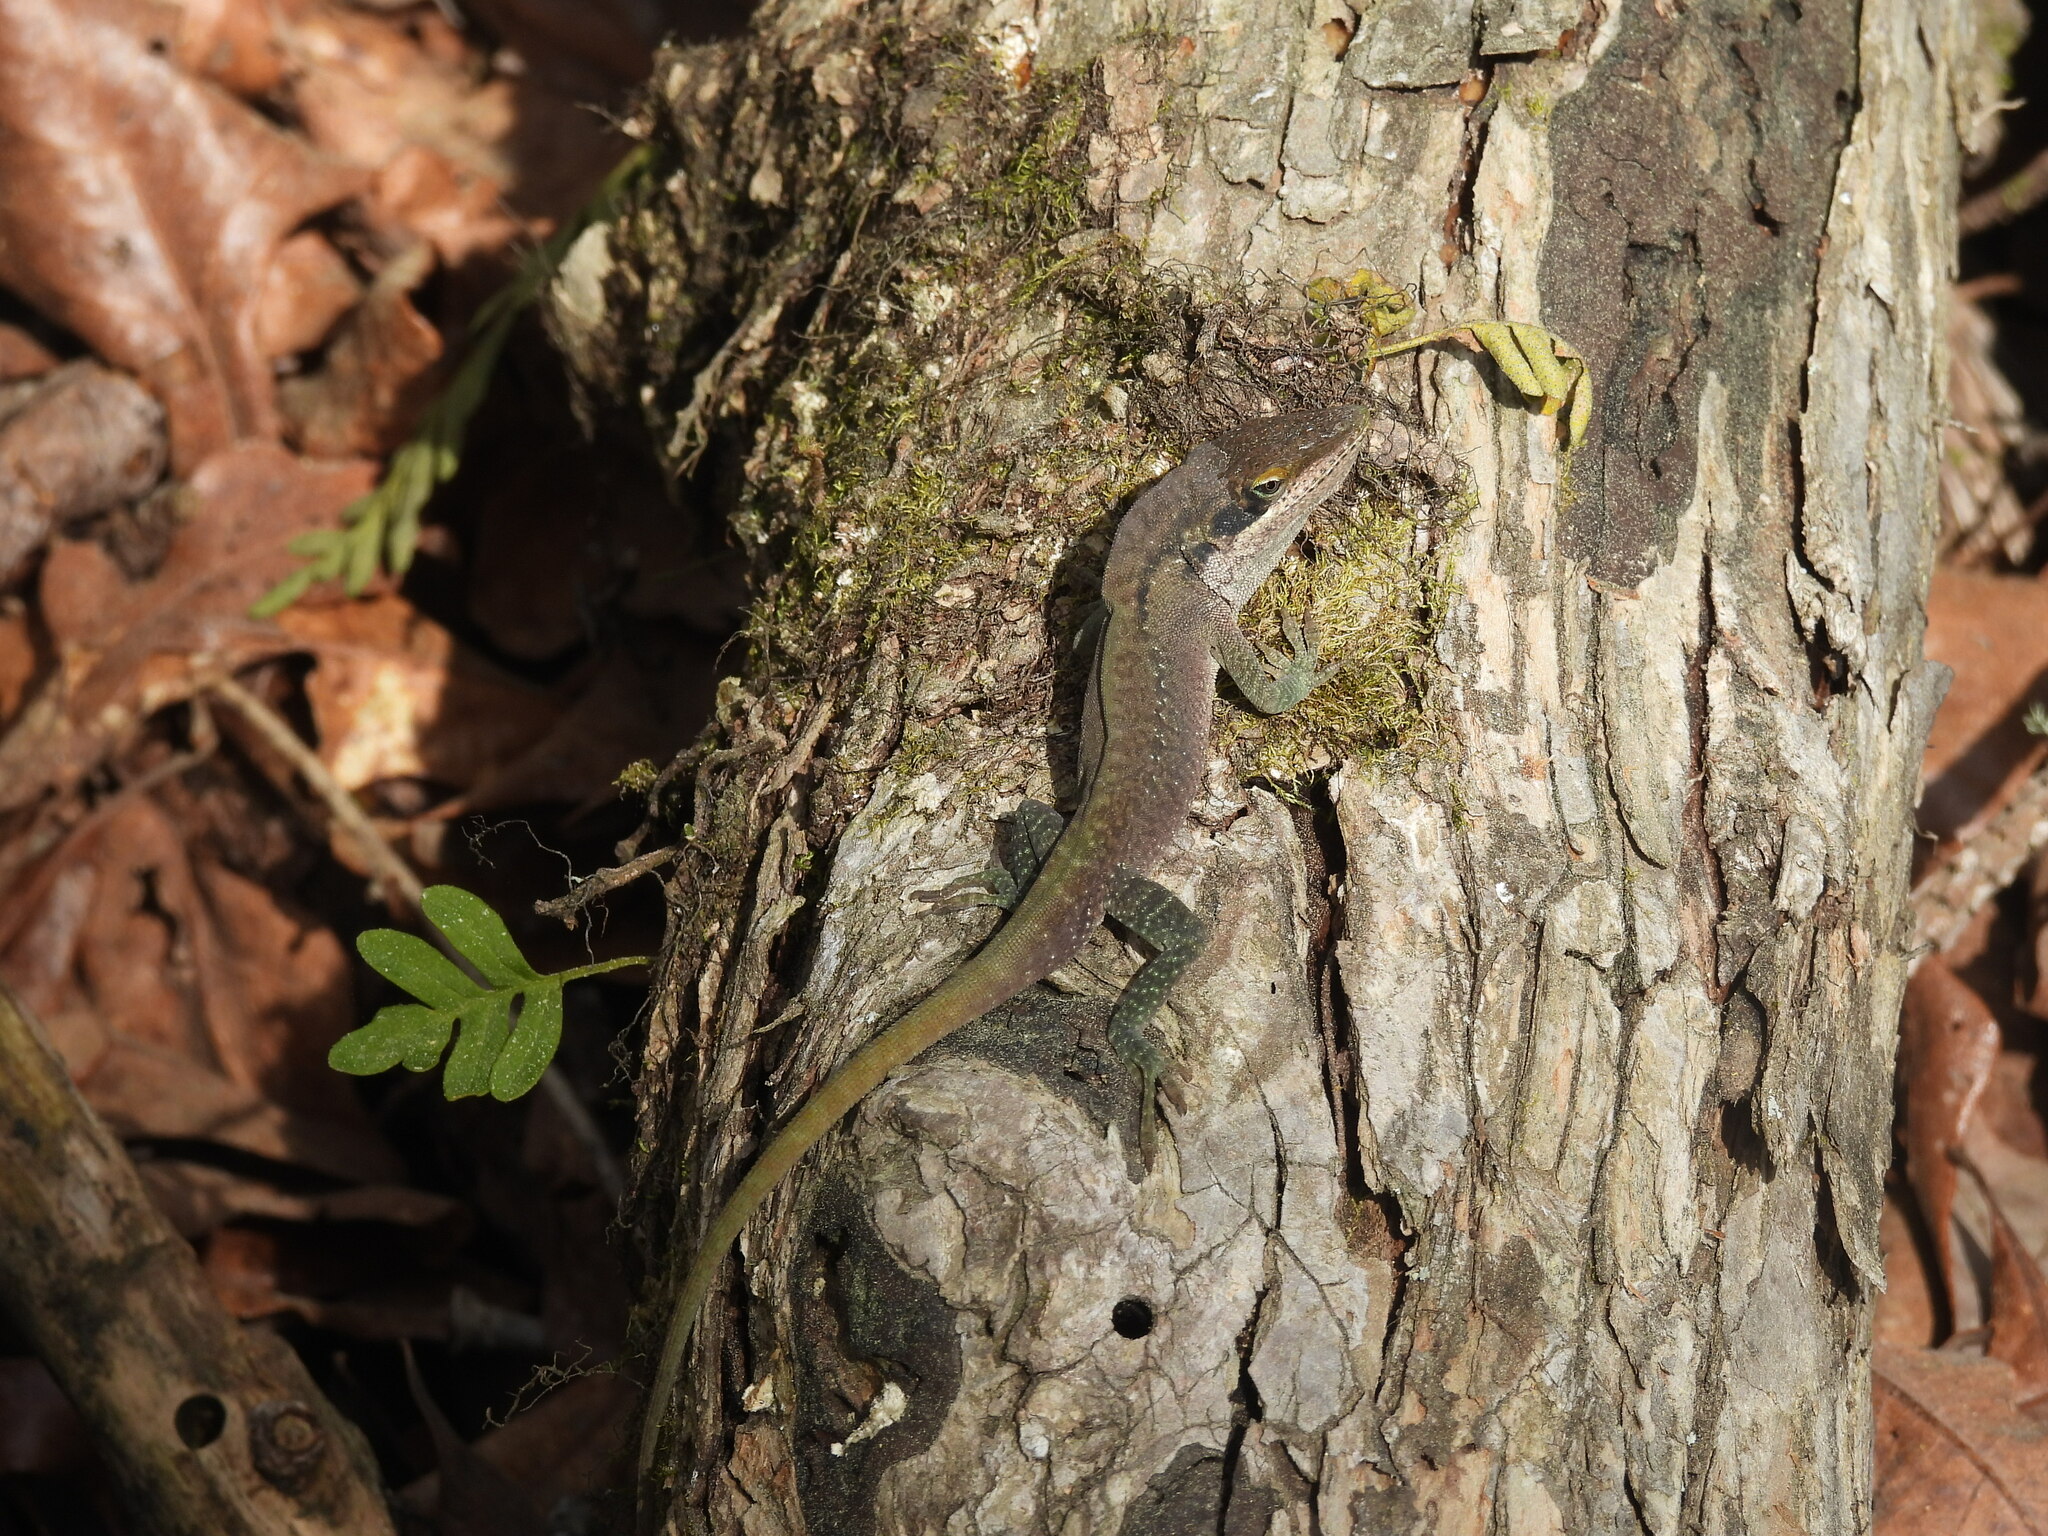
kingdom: Animalia
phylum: Chordata
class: Squamata
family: Dactyloidae
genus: Anolis
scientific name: Anolis carolinensis
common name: Green anole
